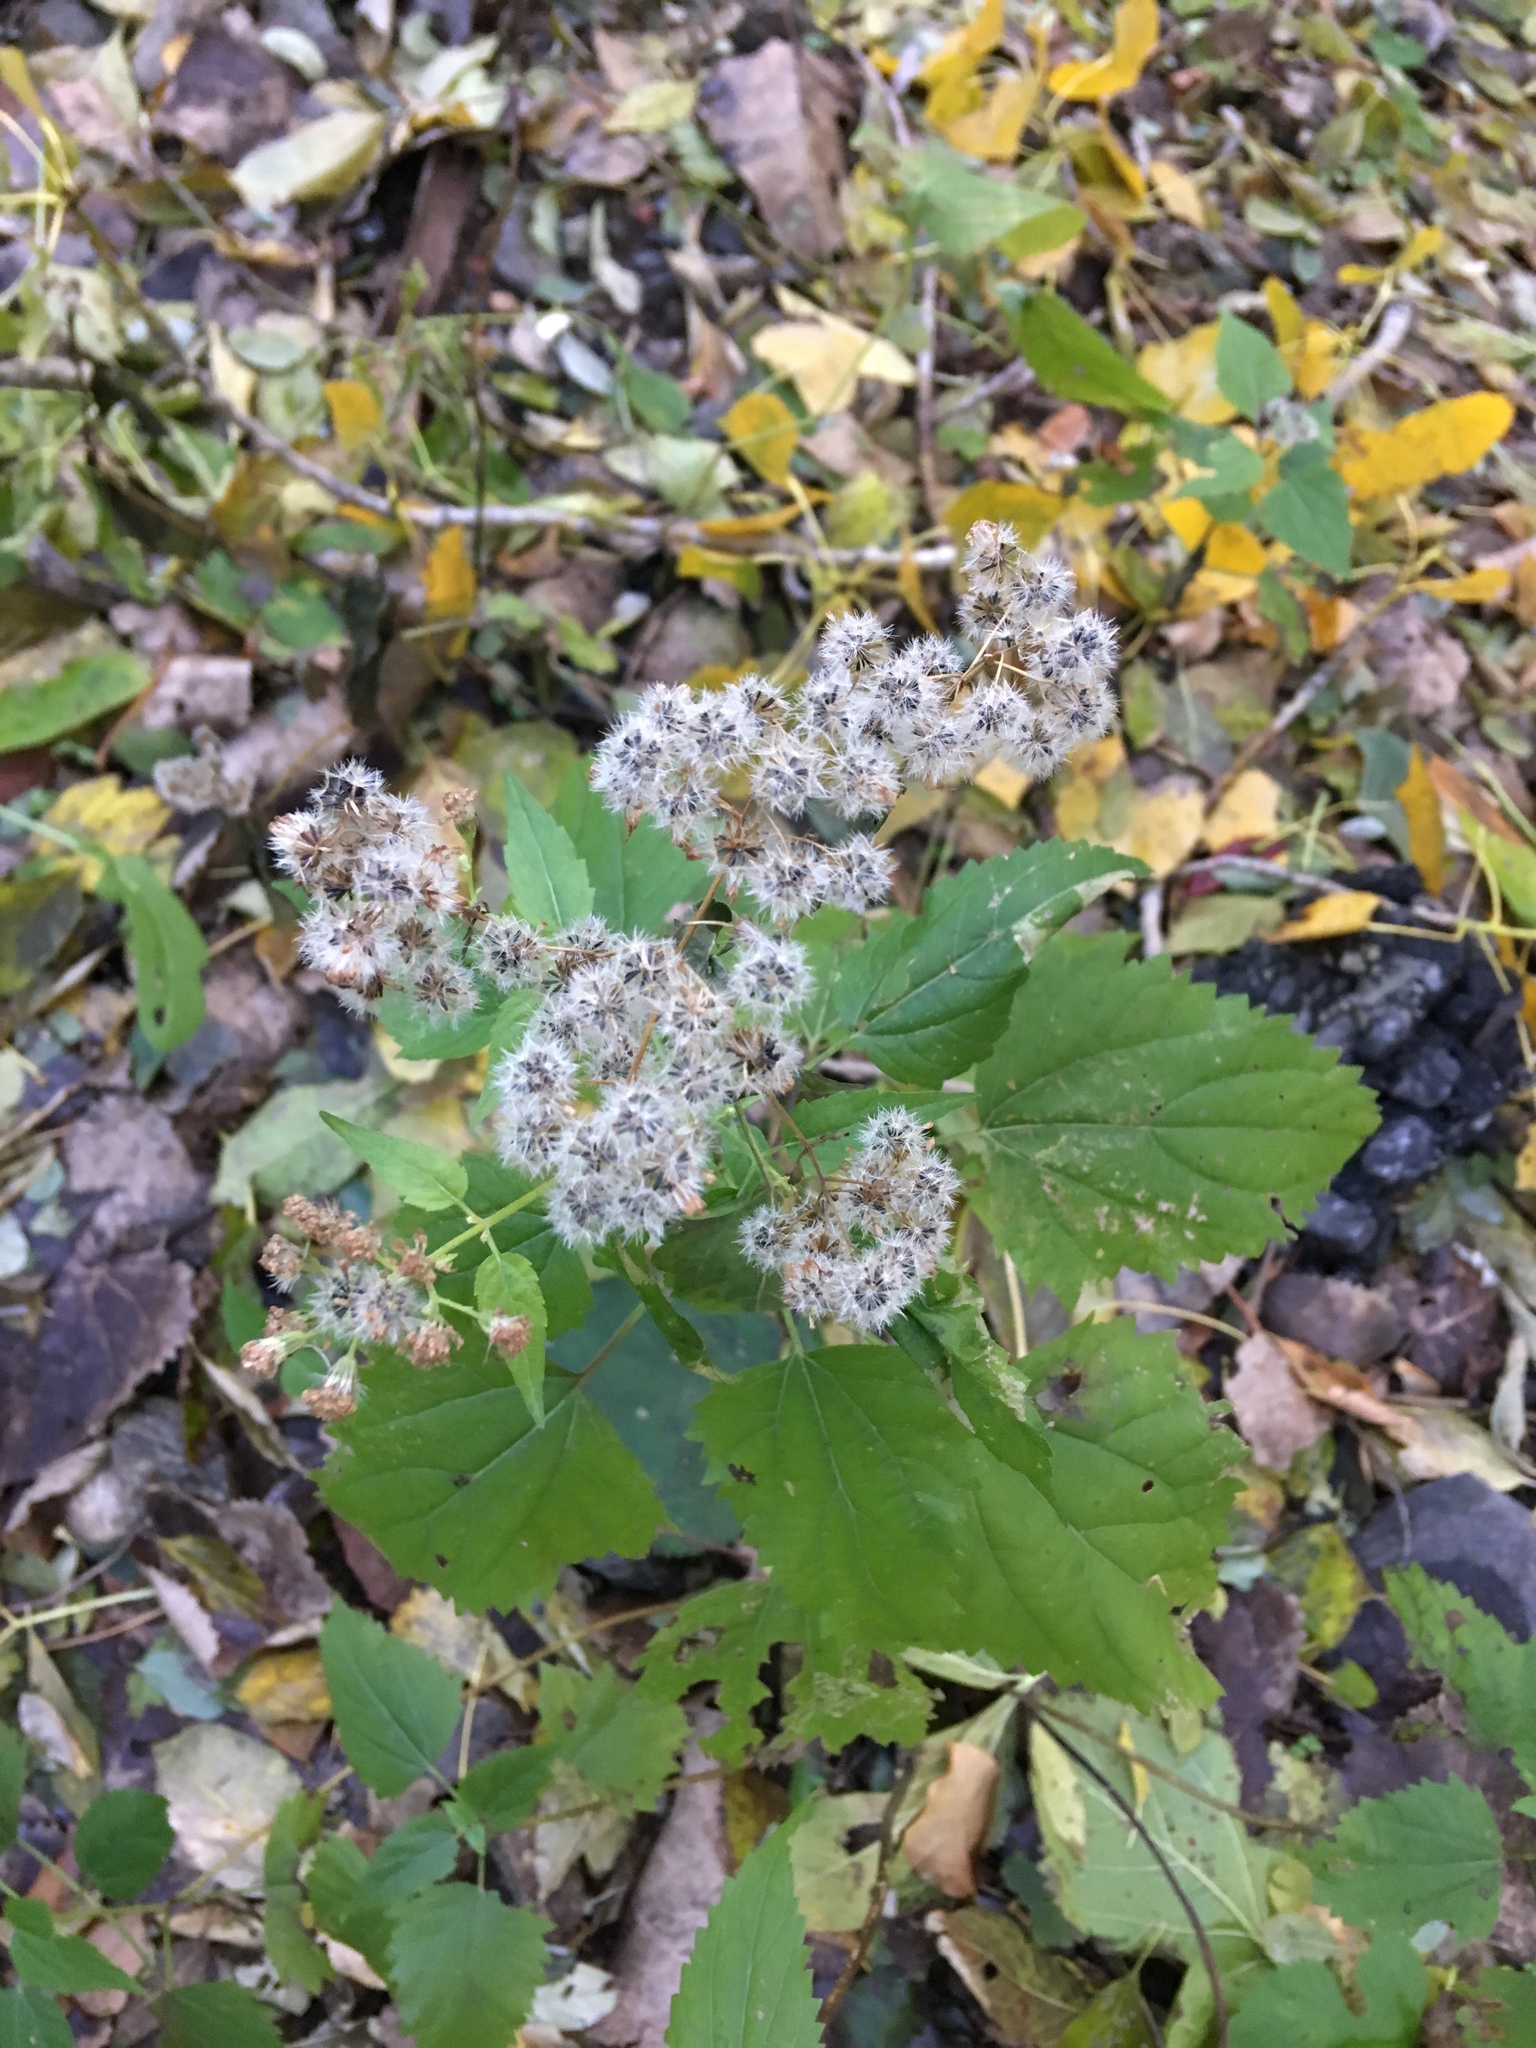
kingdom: Plantae
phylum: Tracheophyta
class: Magnoliopsida
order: Asterales
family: Asteraceae
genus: Ageratina
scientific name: Ageratina altissima
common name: White snakeroot
